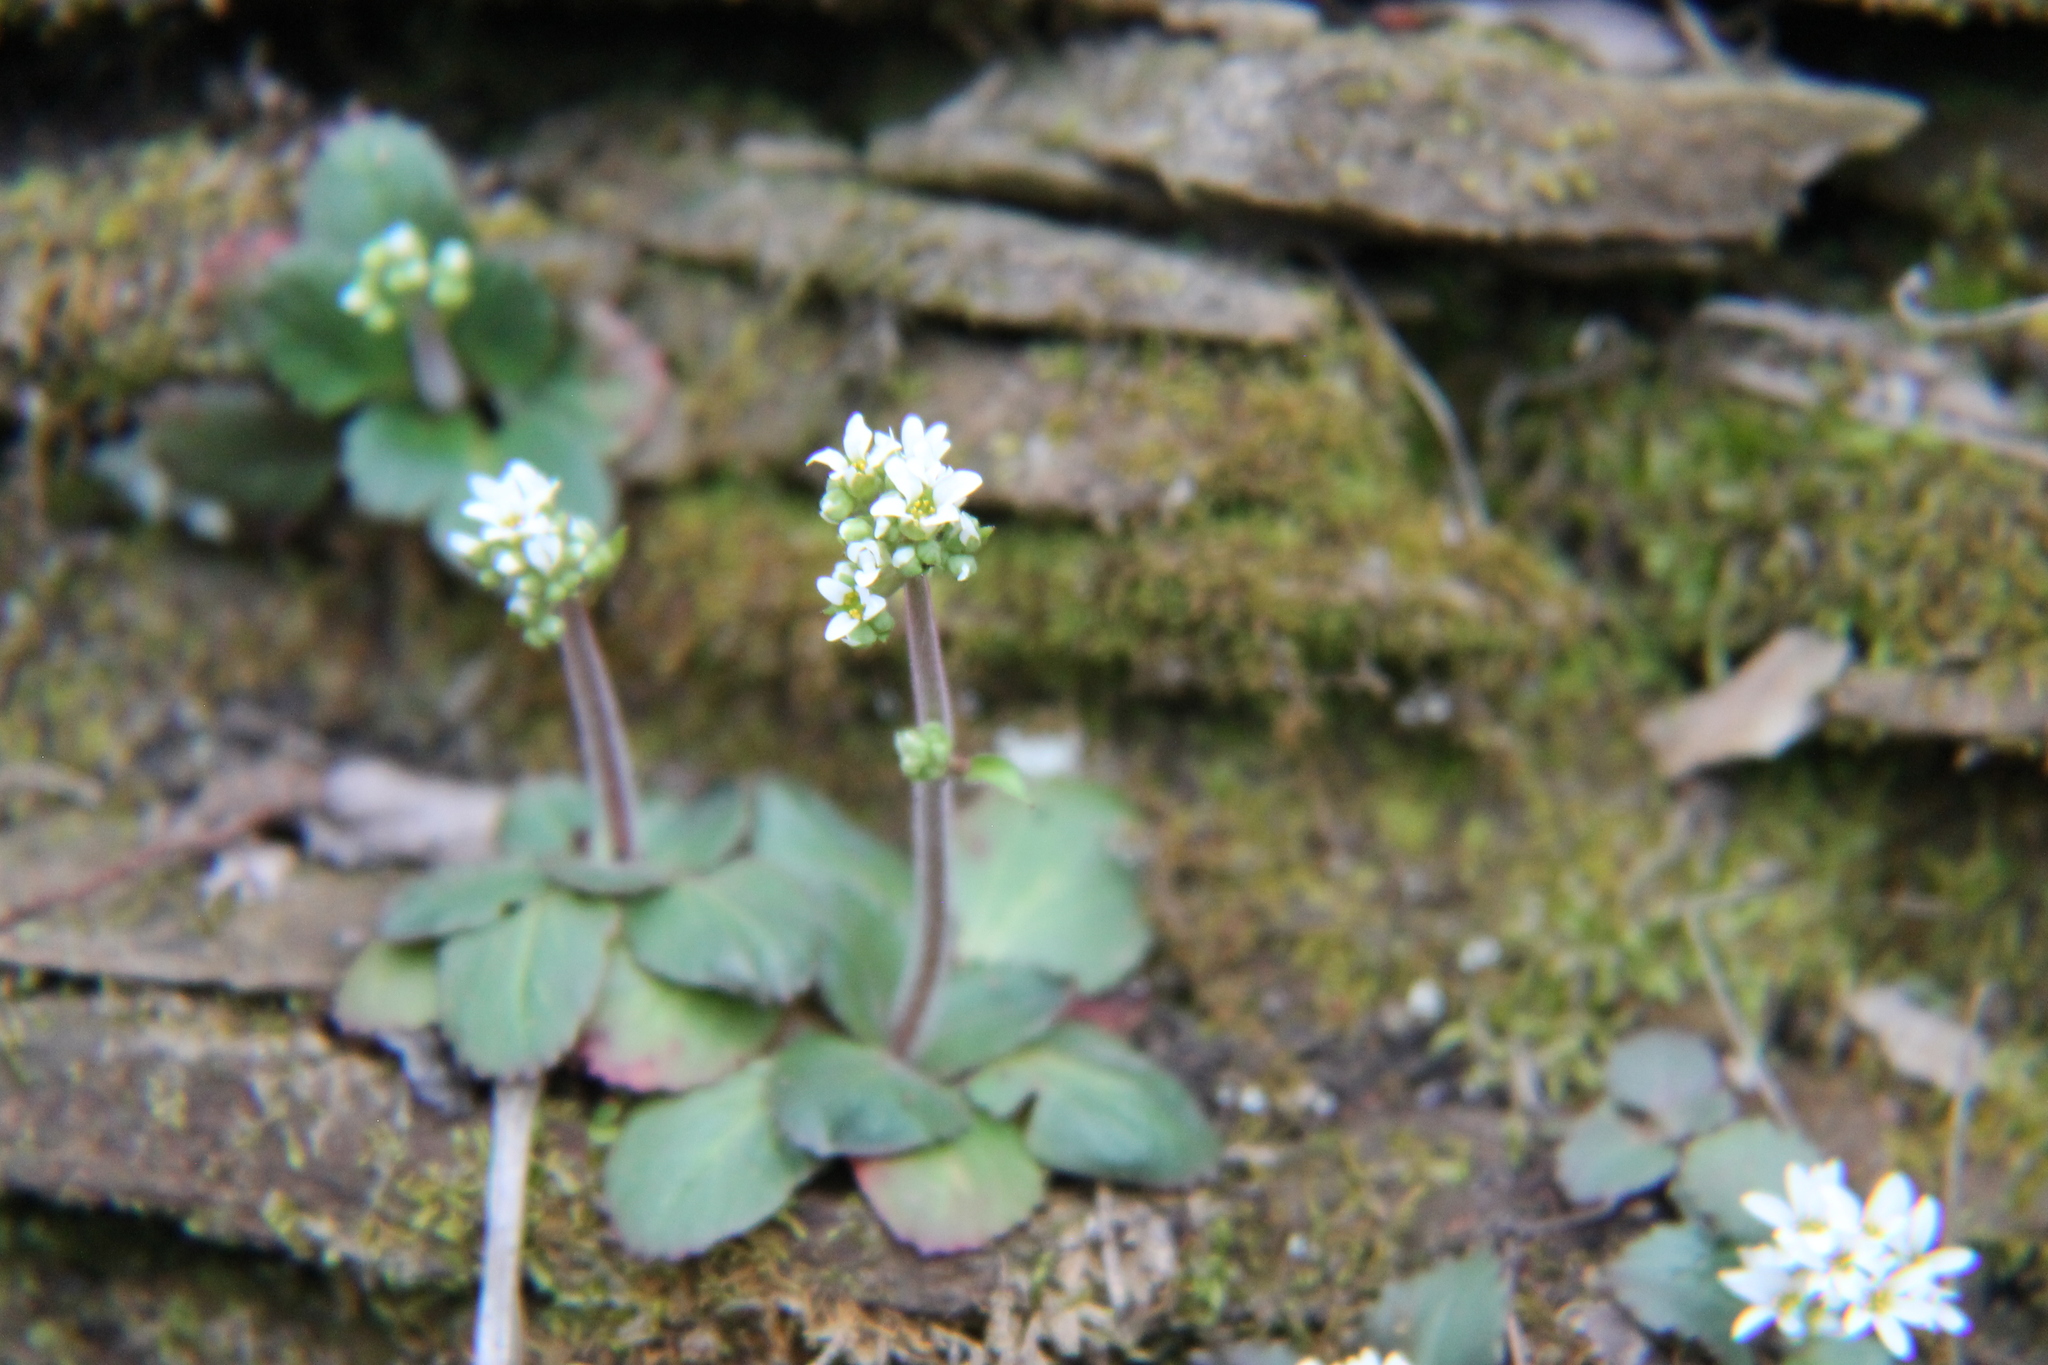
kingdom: Plantae
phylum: Tracheophyta
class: Magnoliopsida
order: Saxifragales
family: Saxifragaceae
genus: Micranthes
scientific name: Micranthes virginiensis
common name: Early saxifrage
